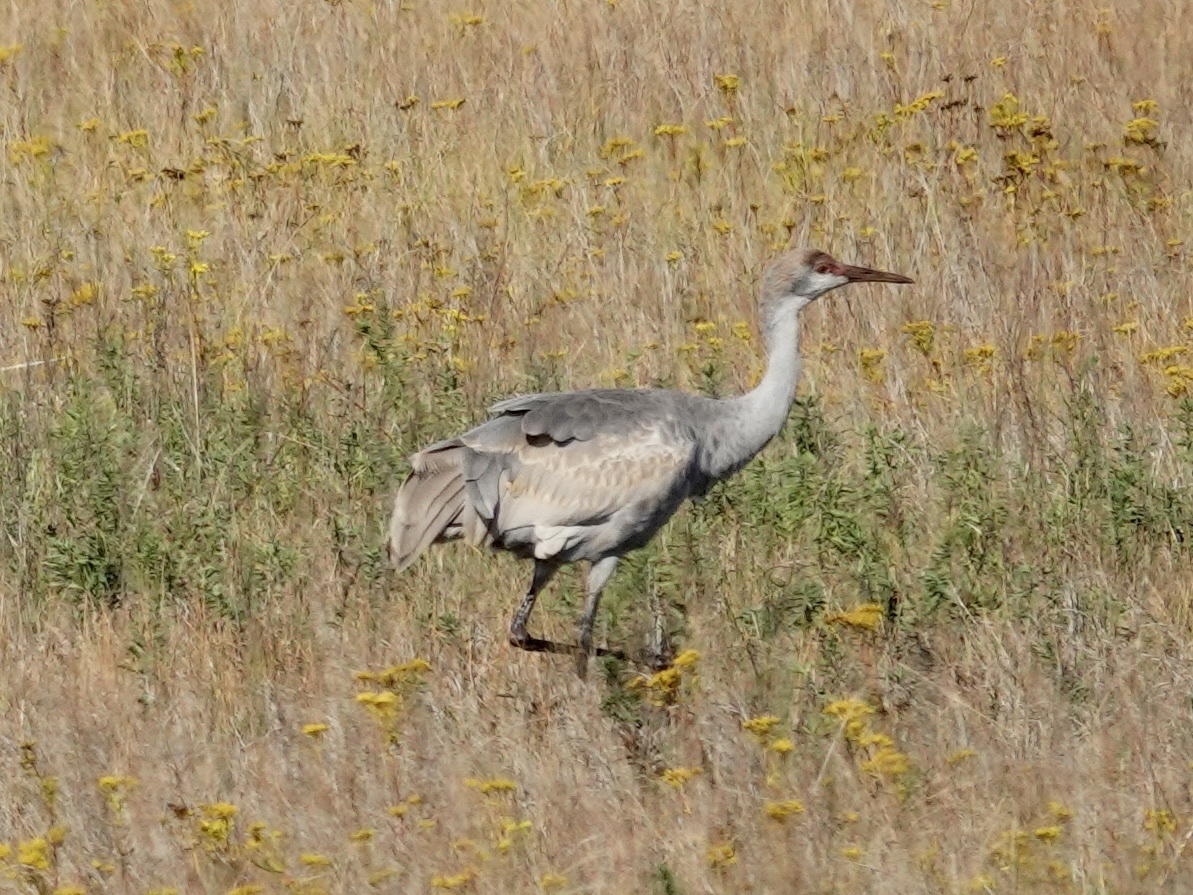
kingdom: Animalia
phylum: Chordata
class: Aves
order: Gruiformes
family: Gruidae
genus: Grus
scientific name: Grus canadensis
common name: Sandhill crane
